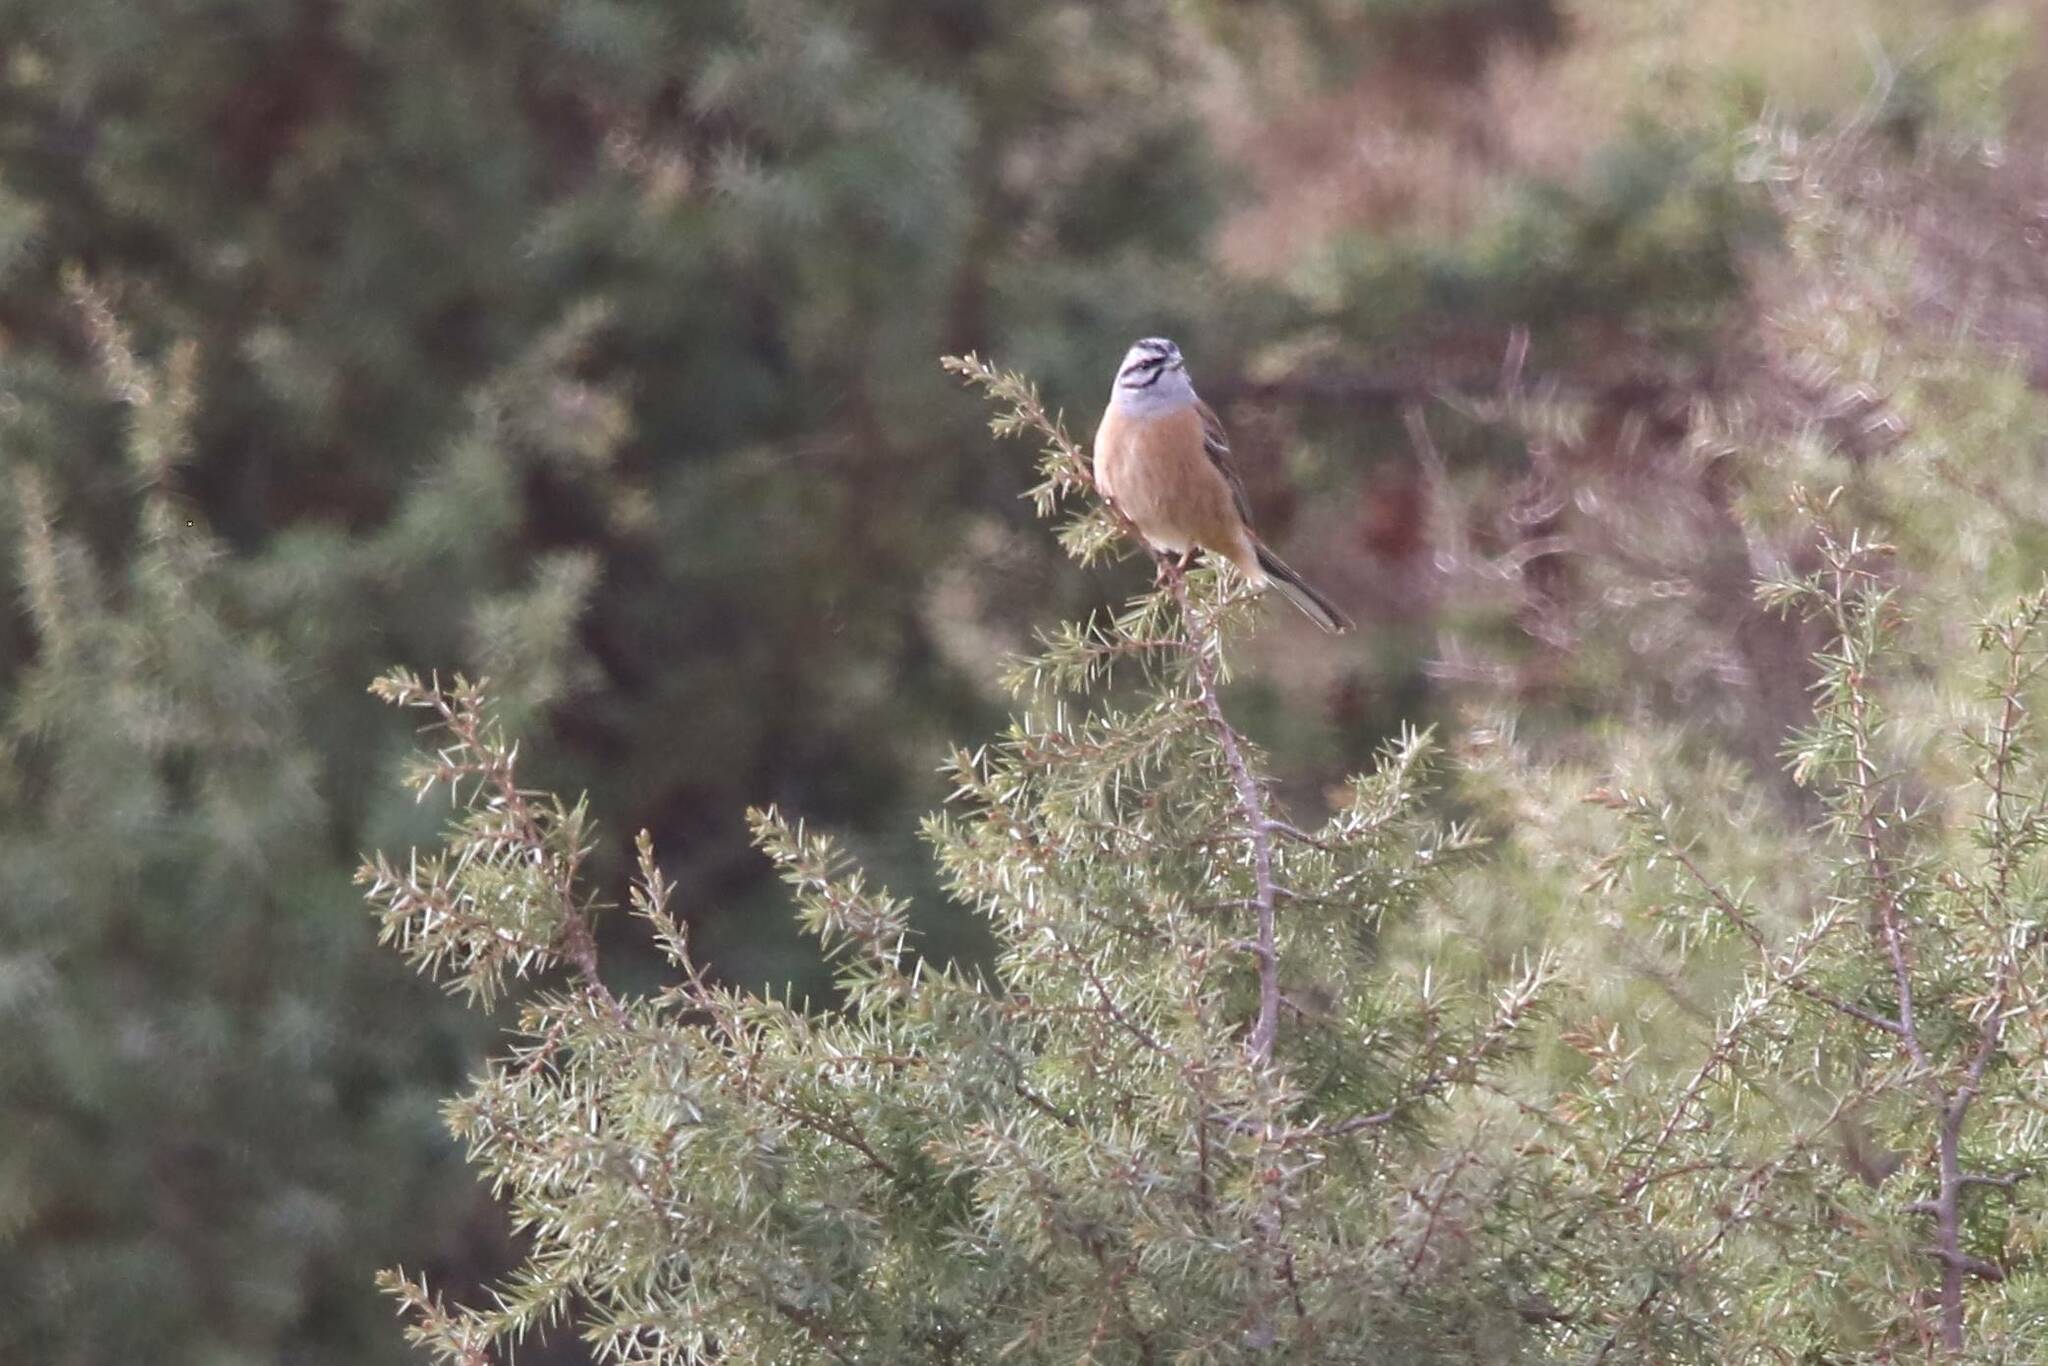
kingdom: Animalia
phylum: Chordata
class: Aves
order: Passeriformes
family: Emberizidae
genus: Emberiza
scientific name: Emberiza cia
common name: Rock bunting
